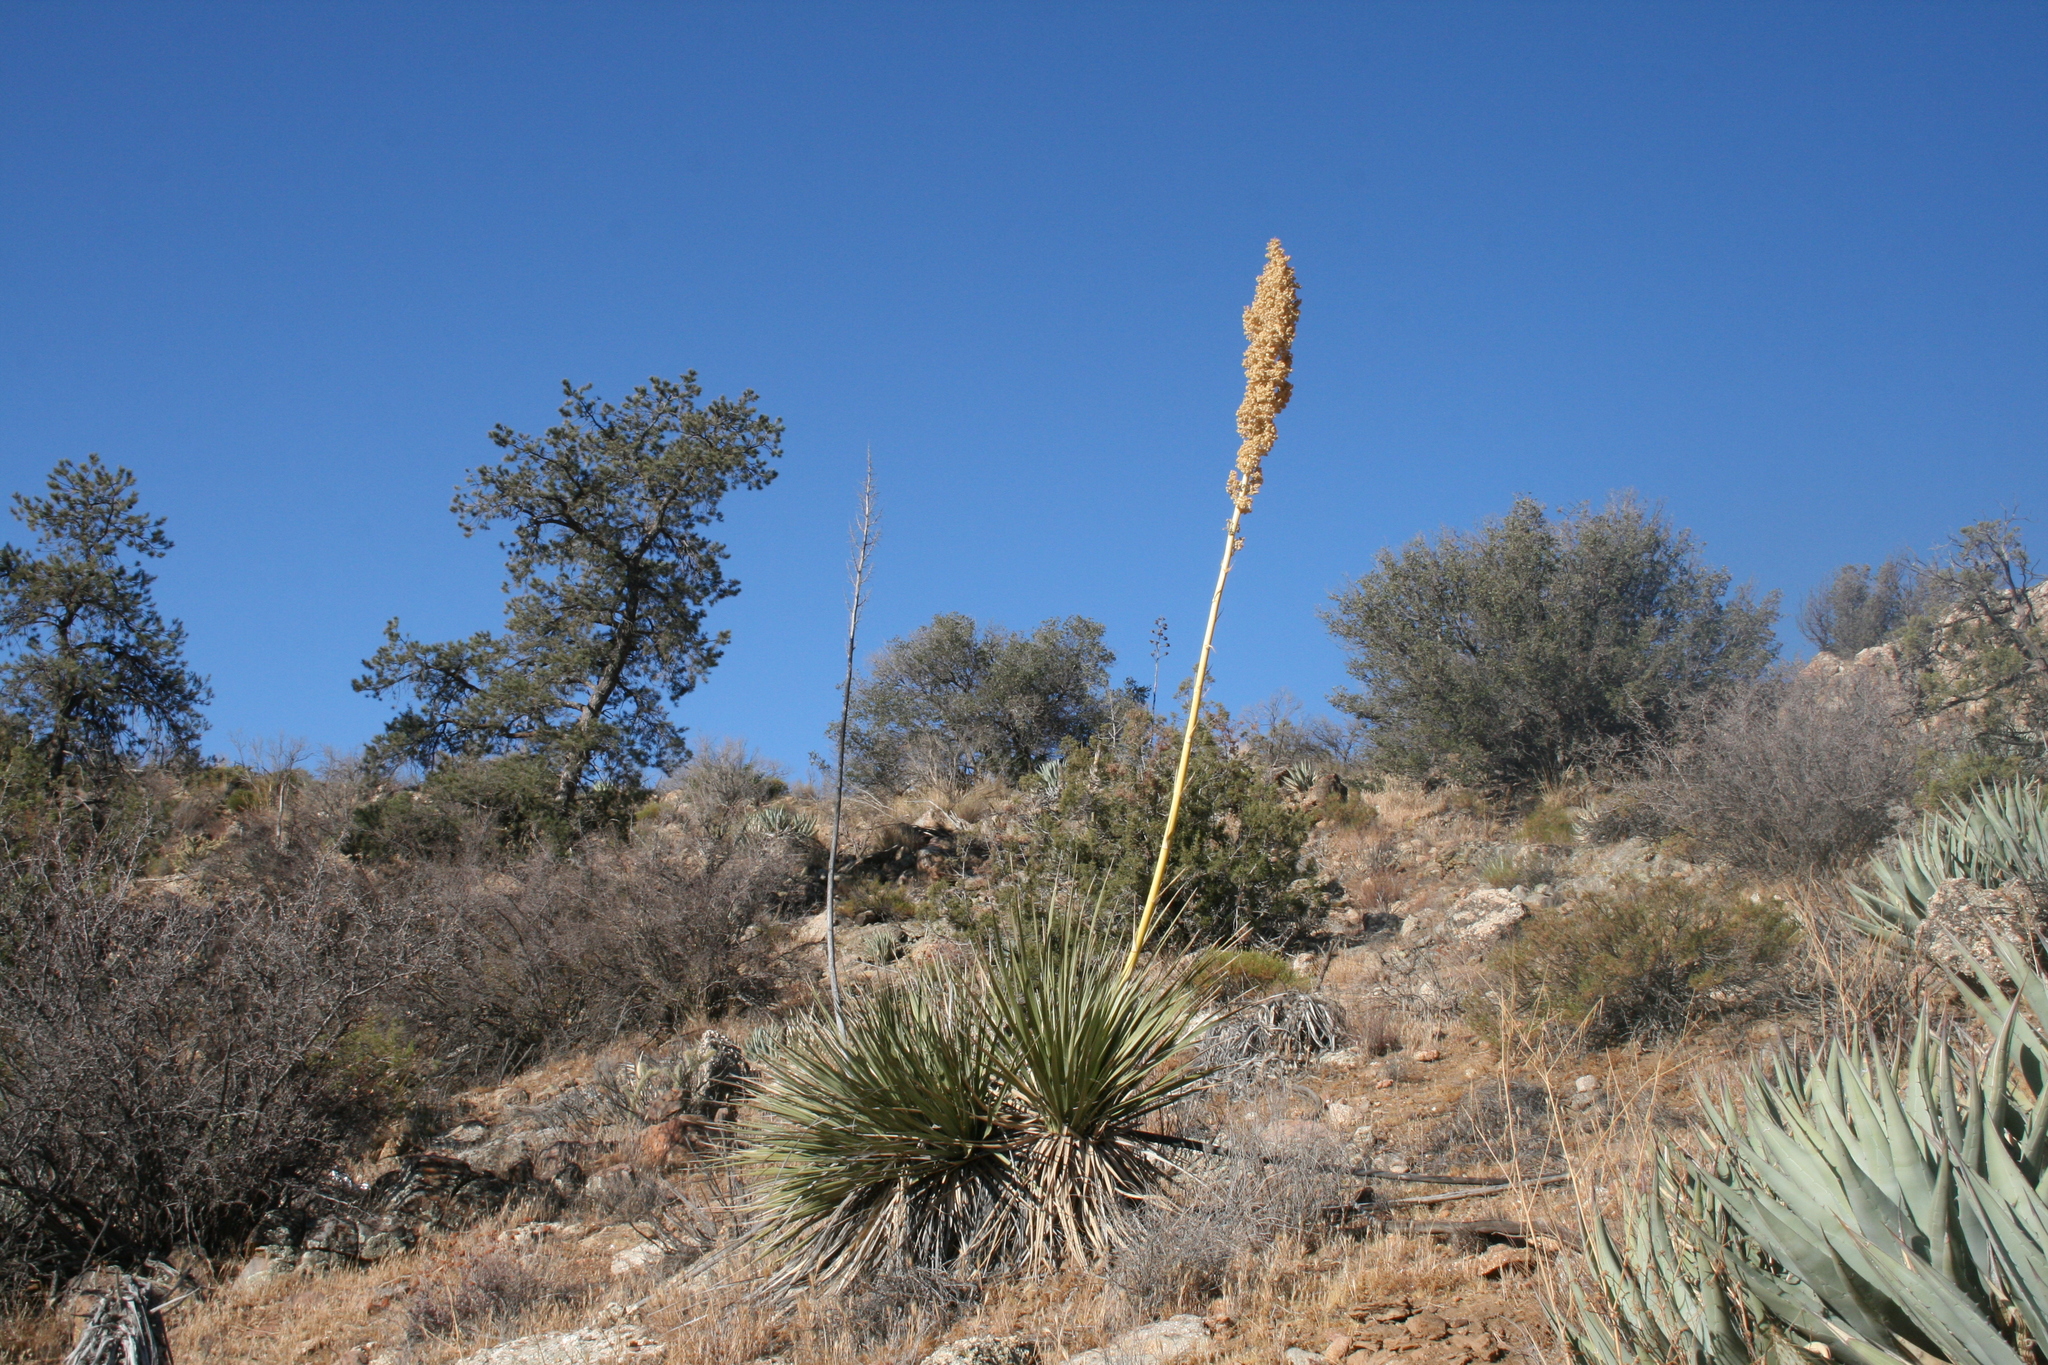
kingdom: Plantae
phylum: Tracheophyta
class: Liliopsida
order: Asparagales
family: Asparagaceae
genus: Nolina
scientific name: Nolina bigelovii
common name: Bigelow bear-grass
